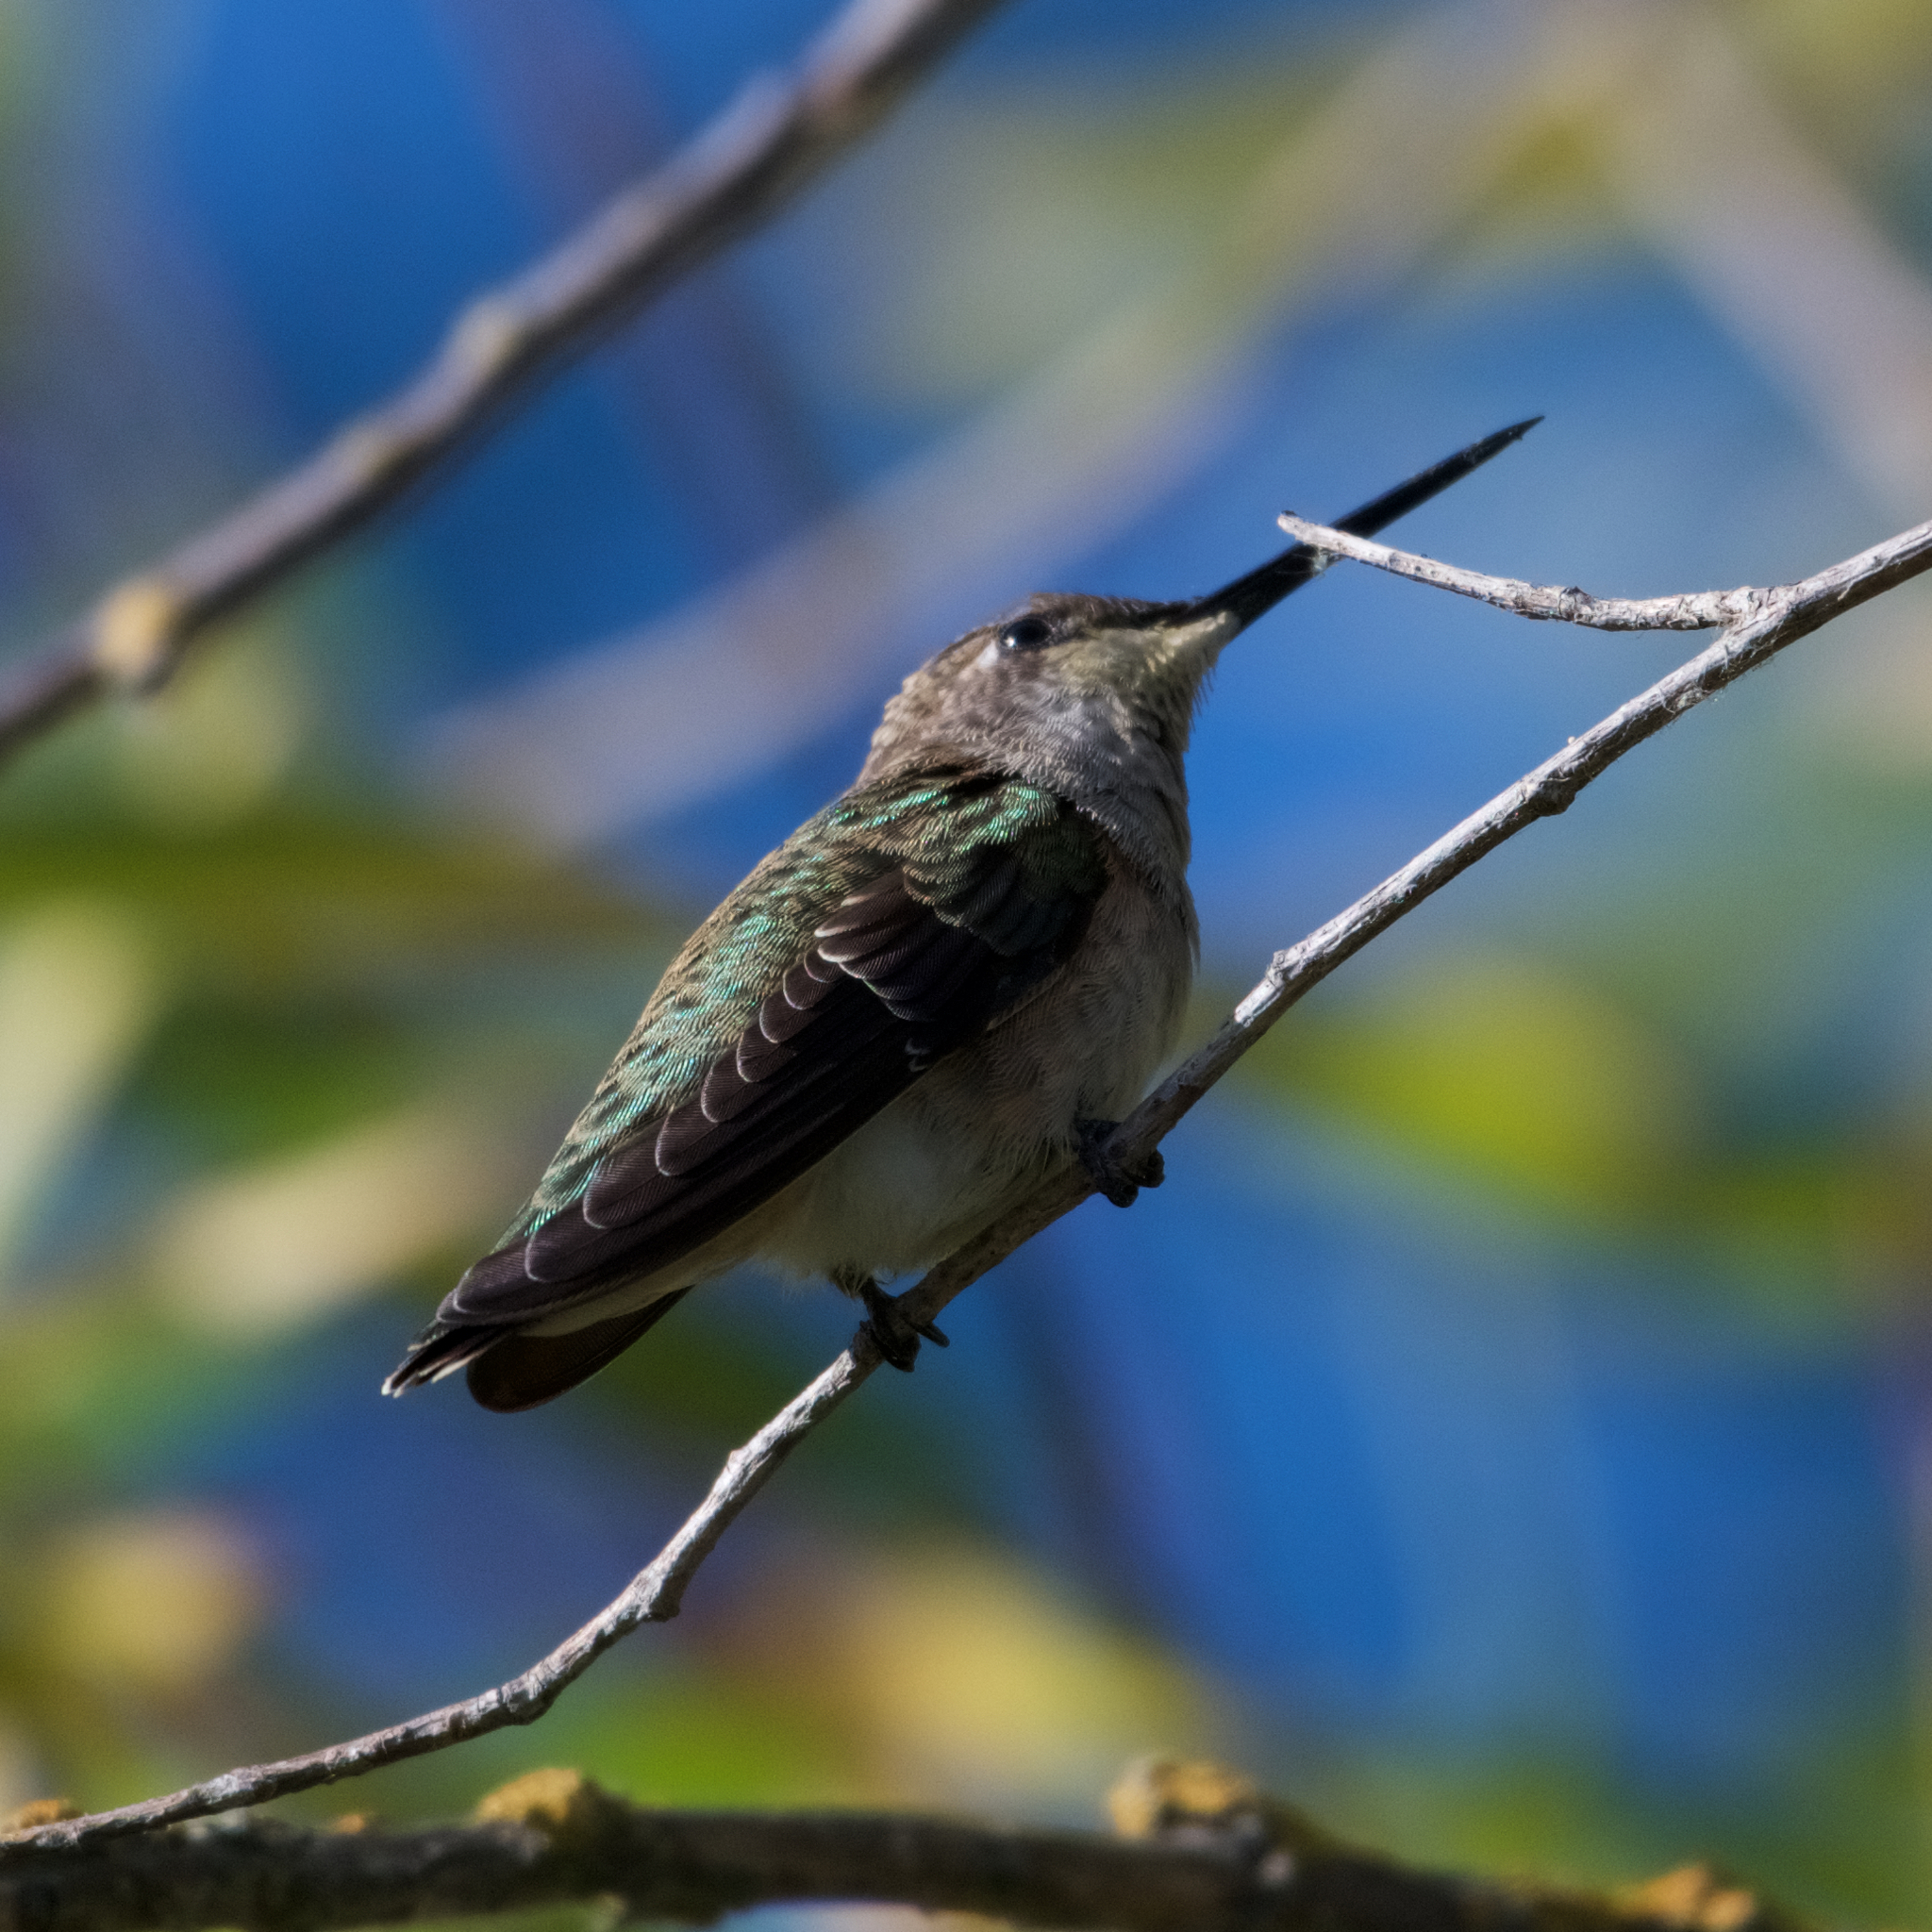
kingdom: Animalia
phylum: Chordata
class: Aves
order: Apodiformes
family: Trochilidae
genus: Calypte
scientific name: Calypte anna
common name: Anna's hummingbird
